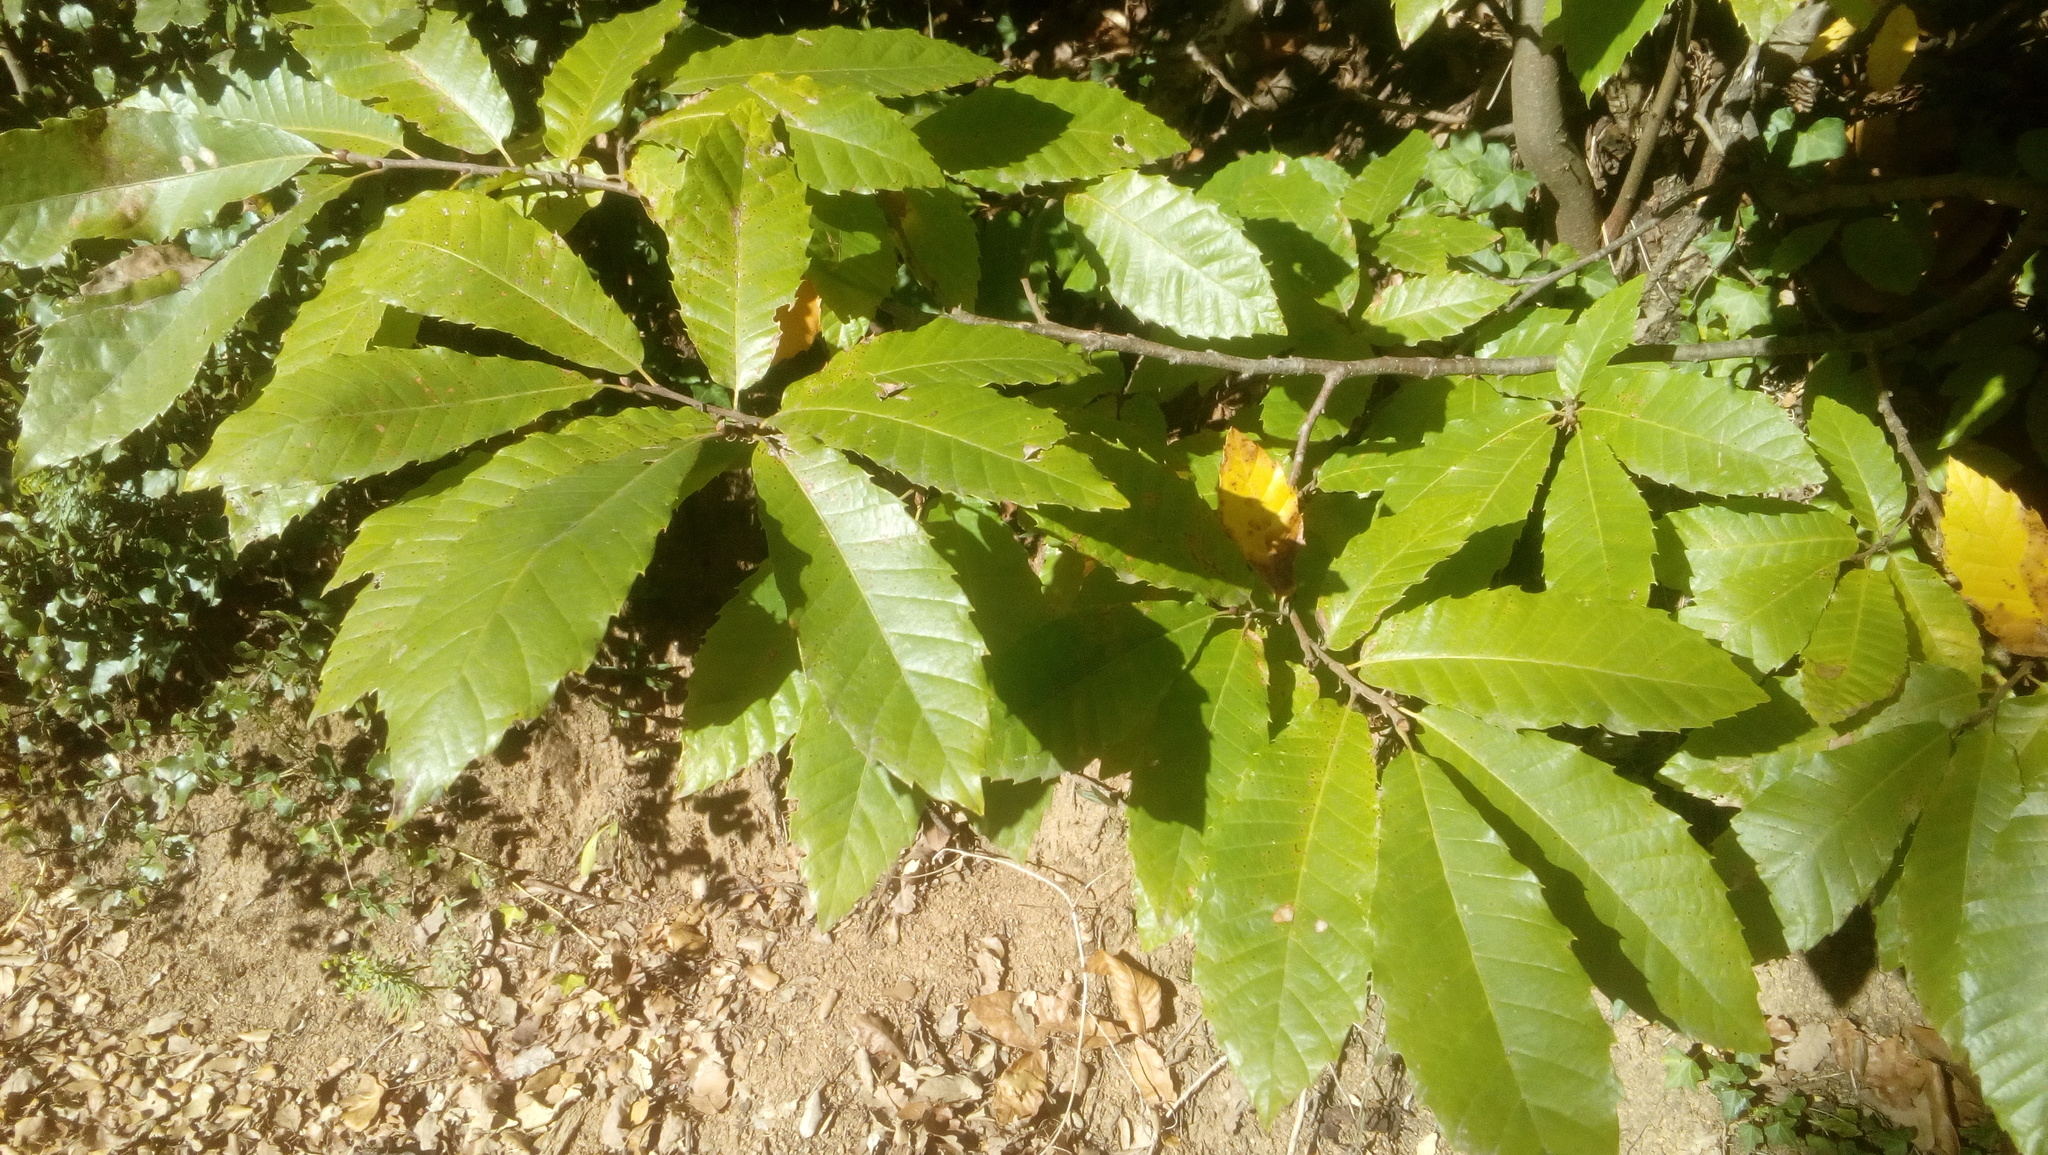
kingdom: Plantae
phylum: Tracheophyta
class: Magnoliopsida
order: Fagales
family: Fagaceae
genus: Castanea
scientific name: Castanea sativa
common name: Sweet chestnut
